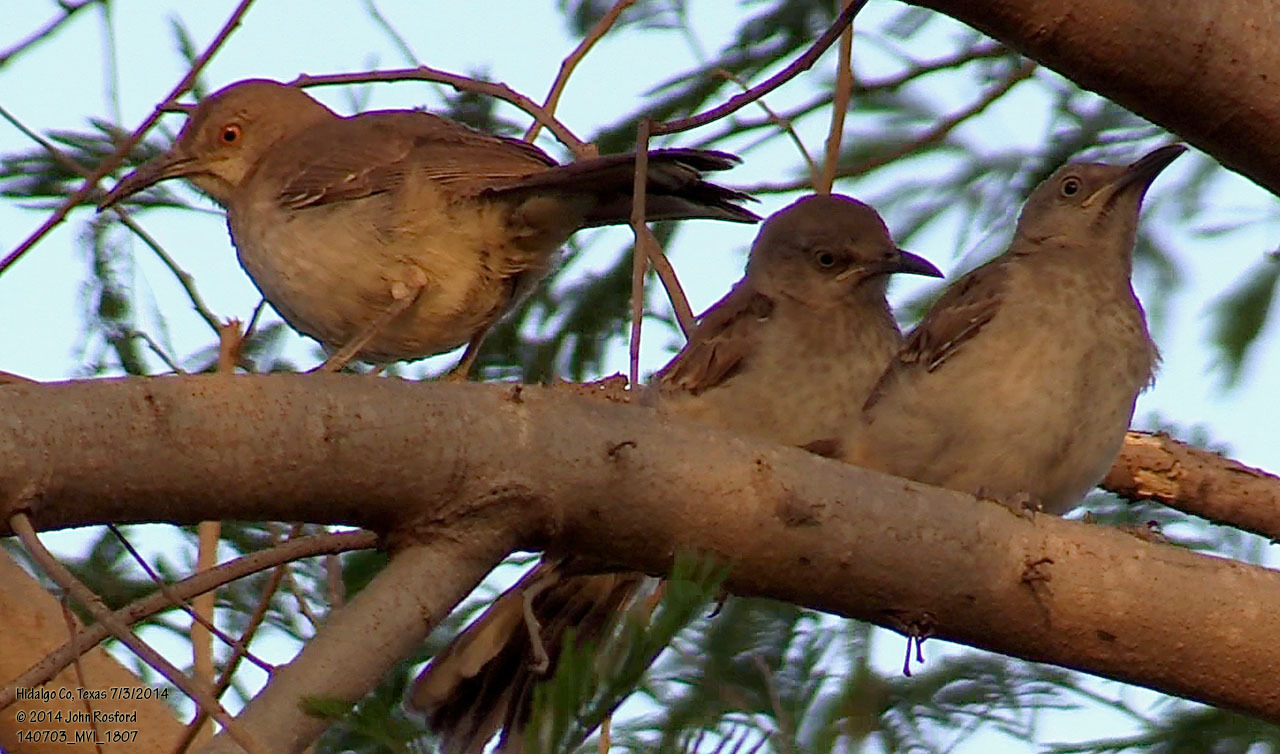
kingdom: Animalia
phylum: Chordata
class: Aves
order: Passeriformes
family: Mimidae
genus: Toxostoma
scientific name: Toxostoma curvirostre
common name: Curve-billed thrasher
